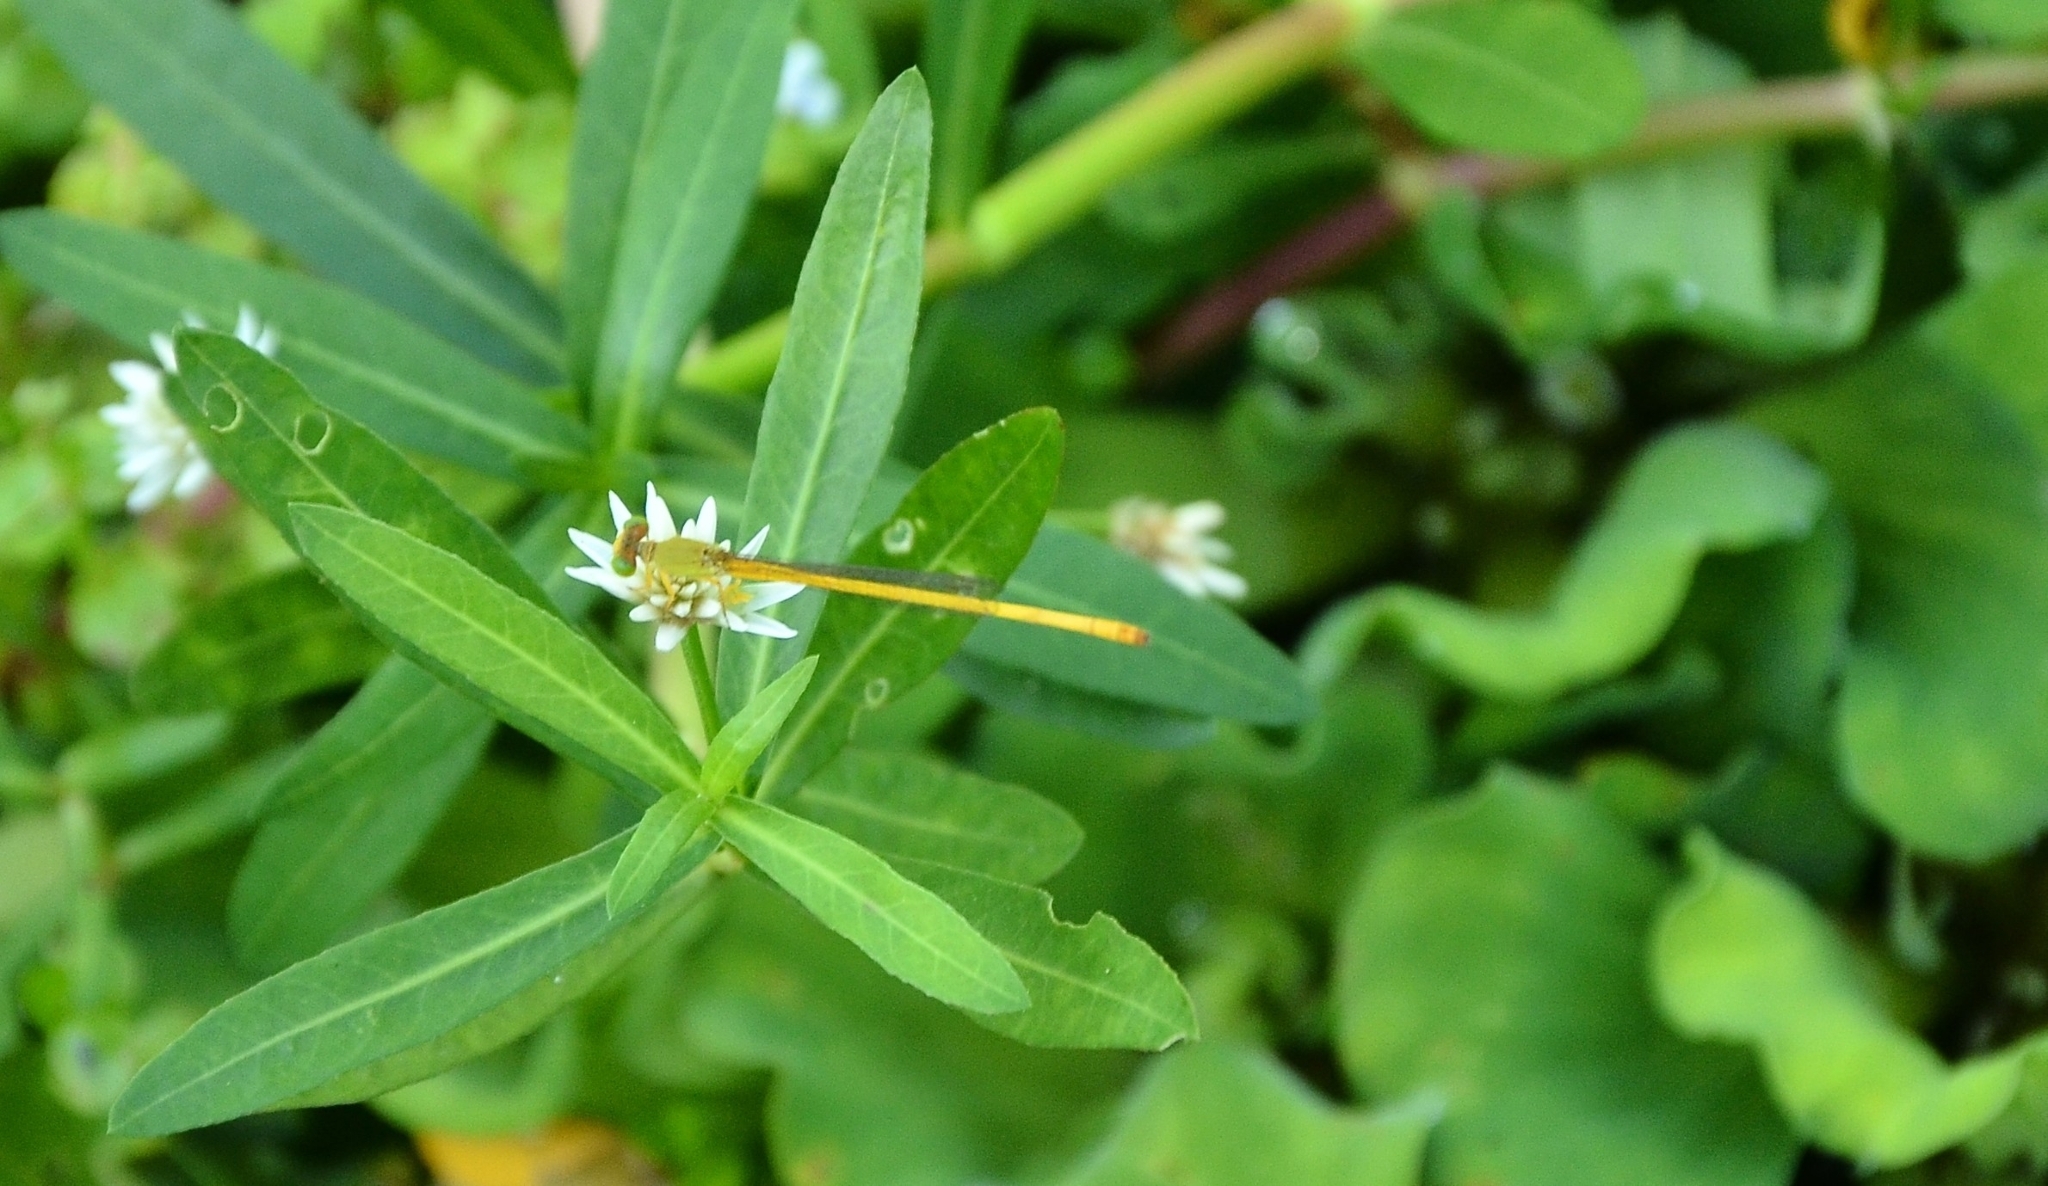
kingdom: Animalia
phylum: Arthropoda
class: Insecta
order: Odonata
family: Coenagrionidae
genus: Ceriagrion
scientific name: Ceriagrion coromandelianum
